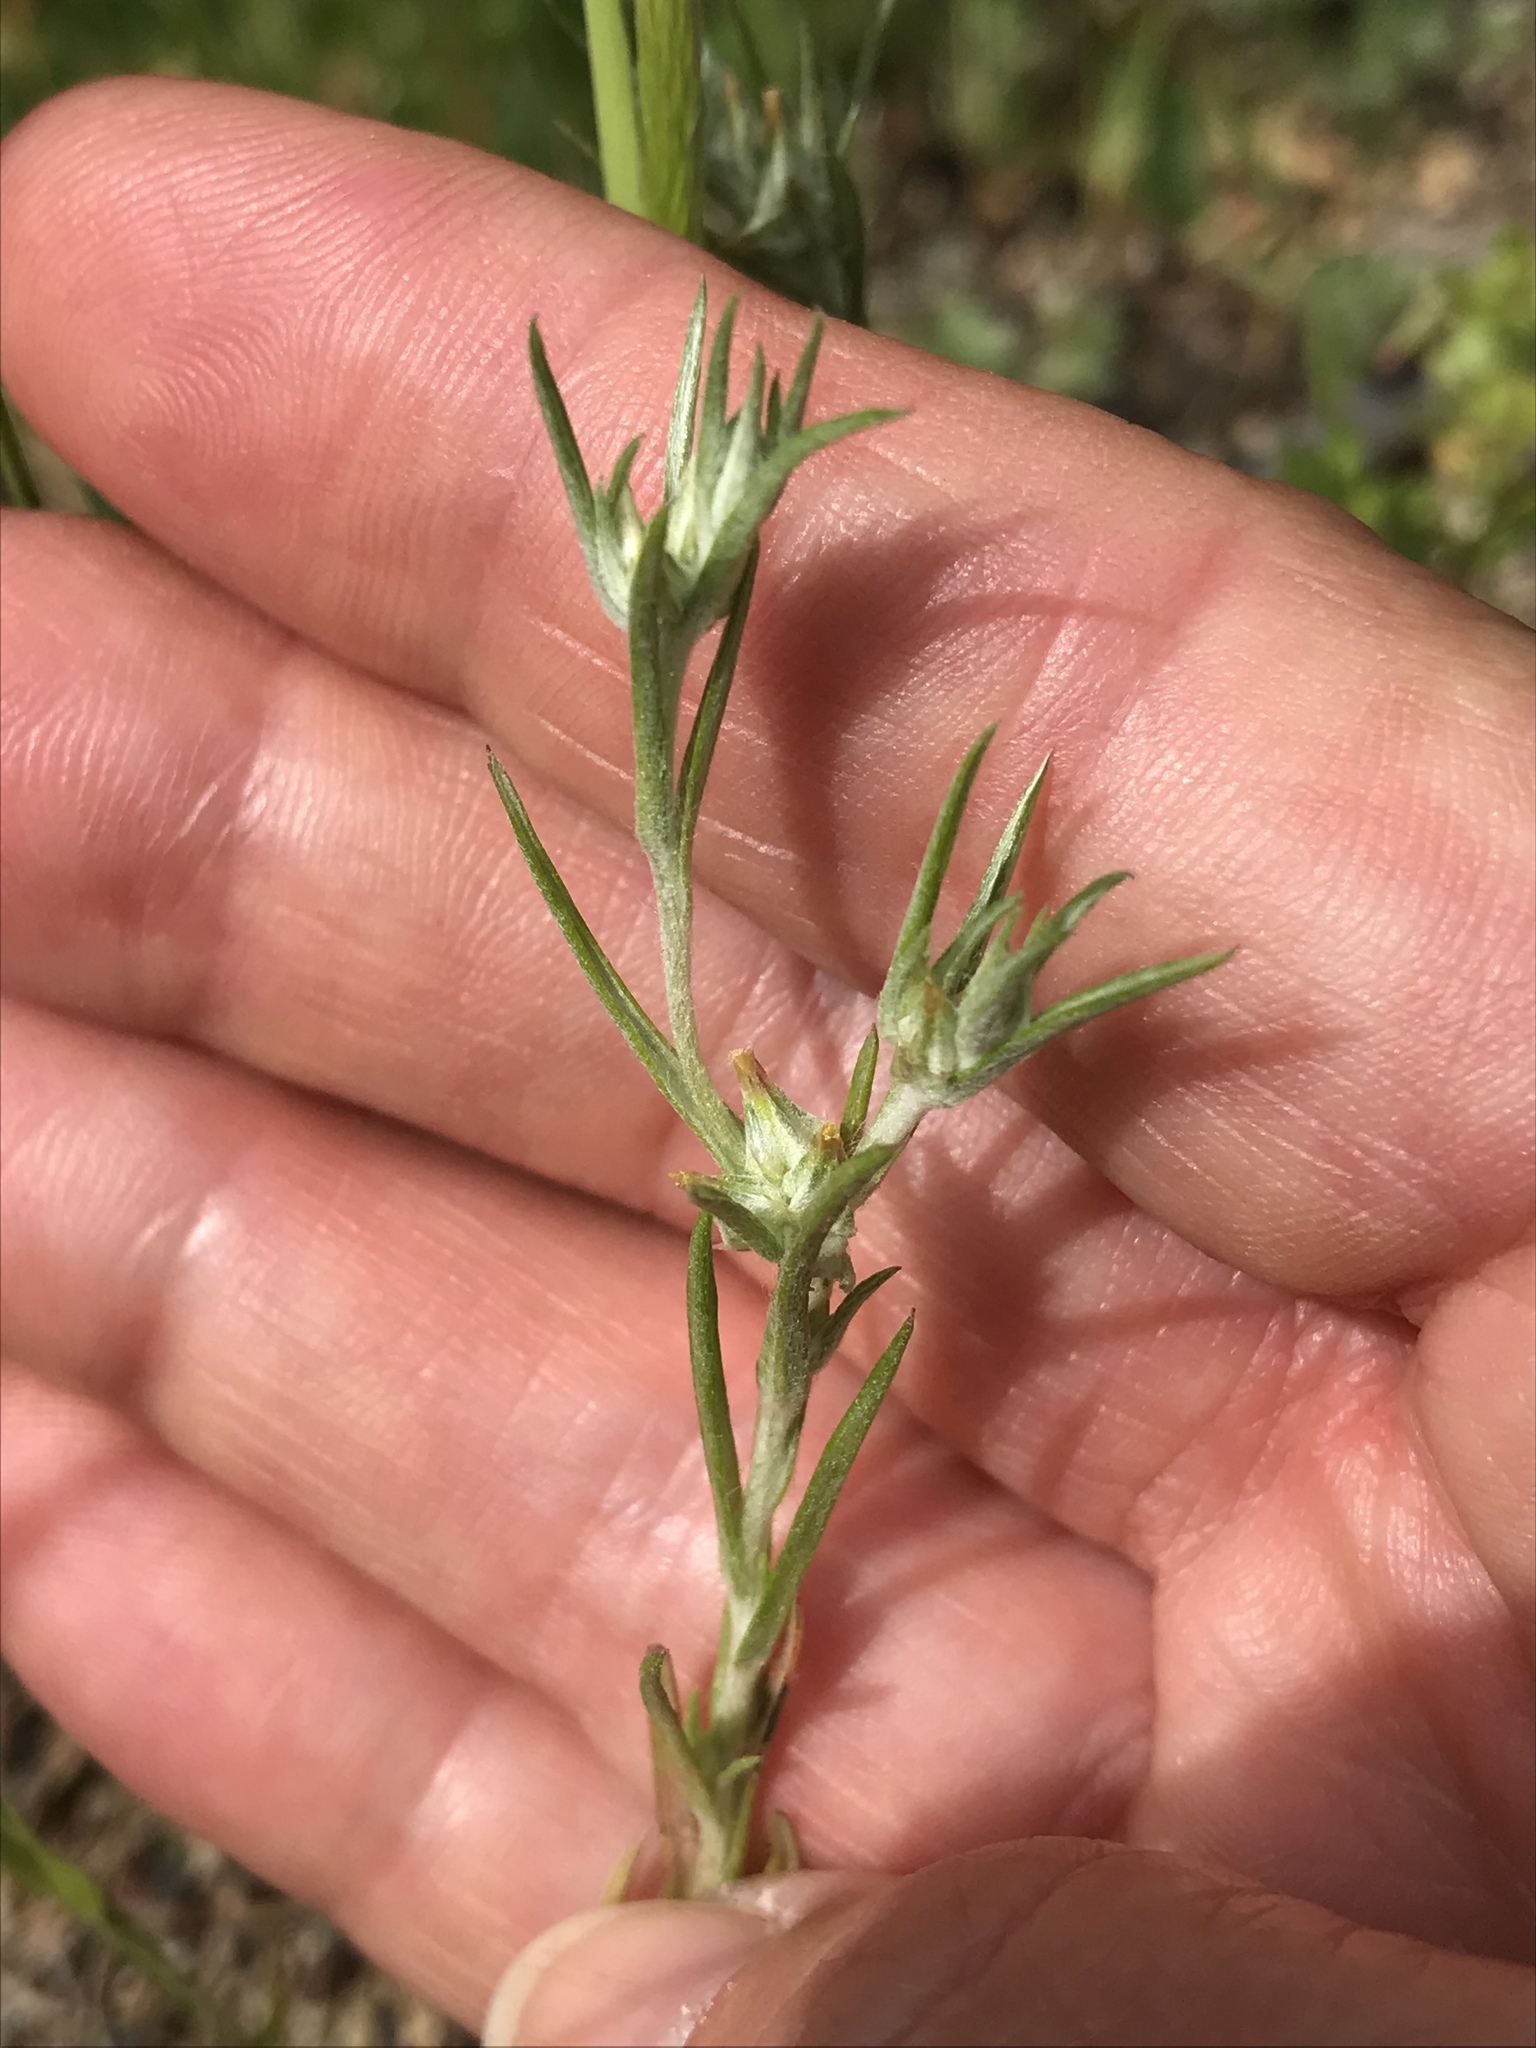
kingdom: Plantae
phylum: Tracheophyta
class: Magnoliopsida
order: Asterales
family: Asteraceae
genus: Logfia
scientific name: Logfia gallica
